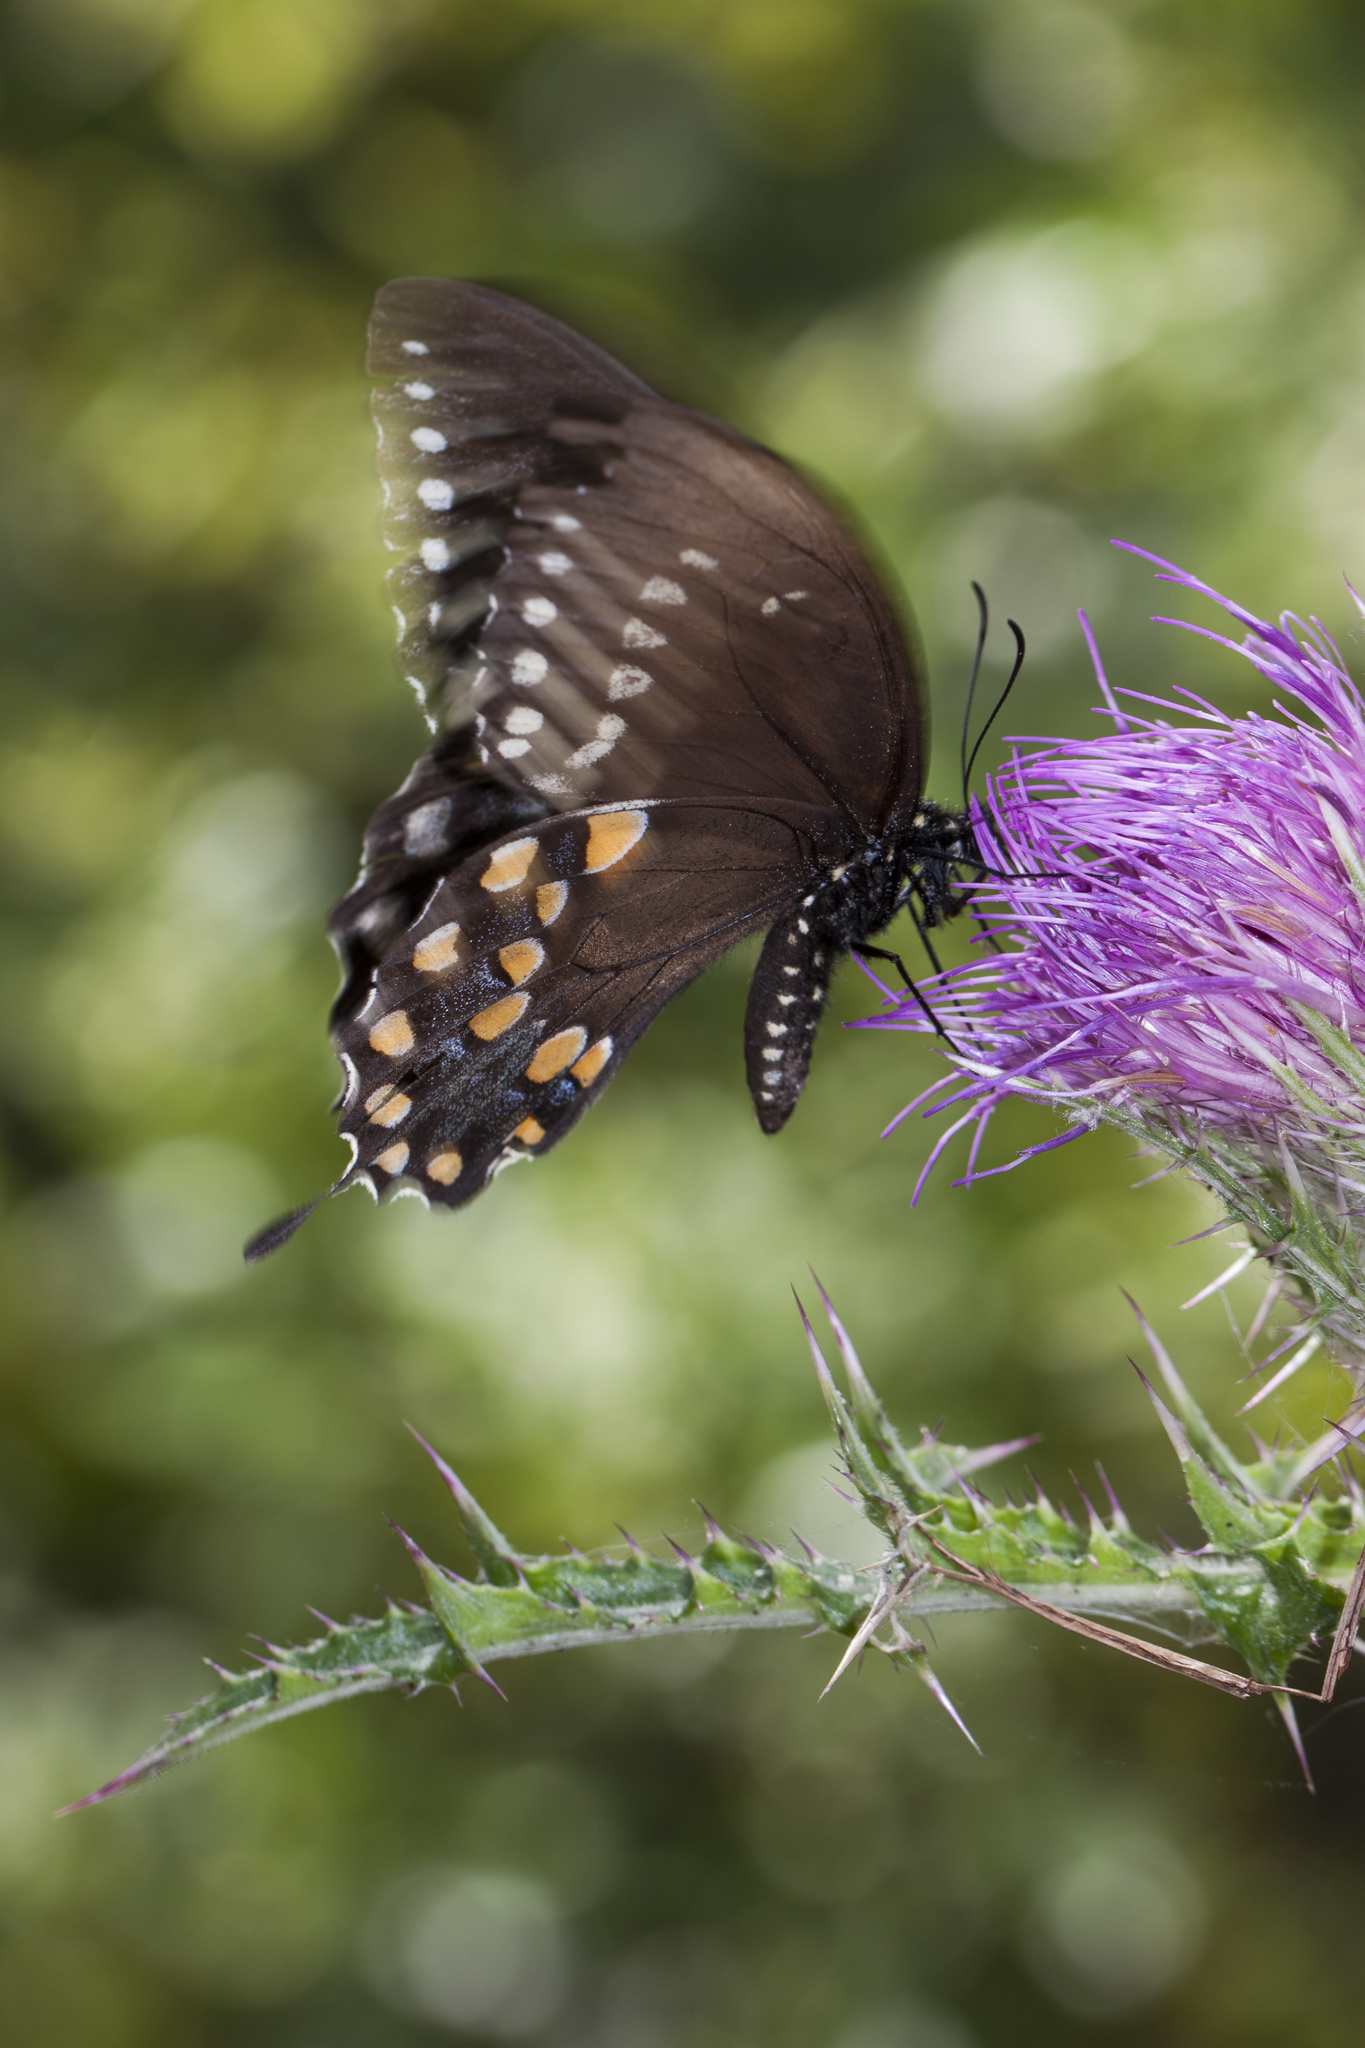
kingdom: Animalia
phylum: Arthropoda
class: Insecta
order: Lepidoptera
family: Papilionidae
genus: Papilio
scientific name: Papilio troilus
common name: Spicebush swallowtail
